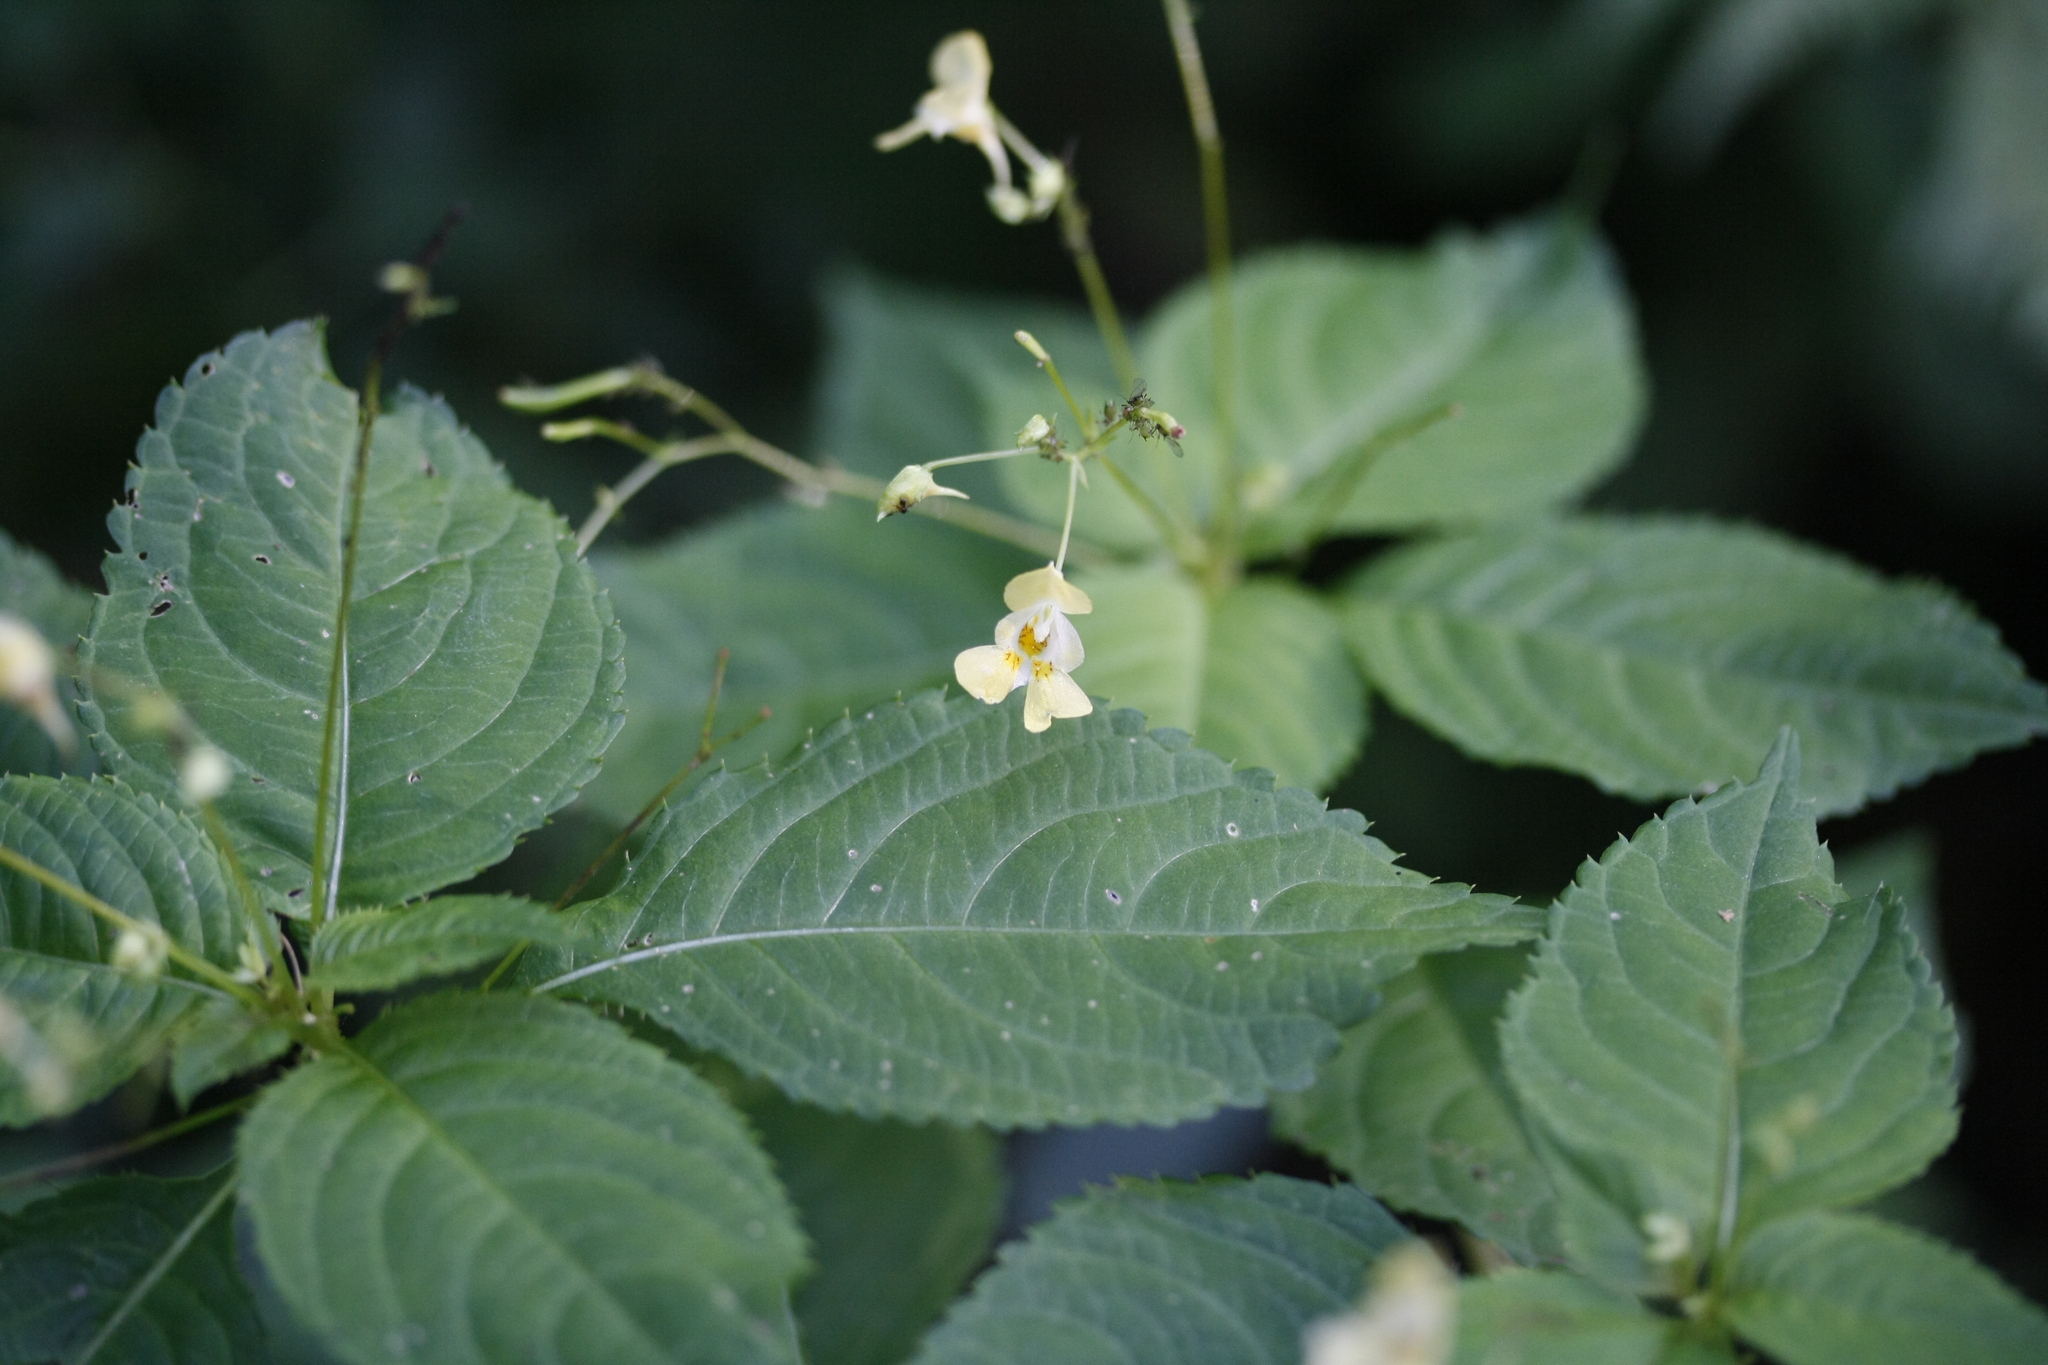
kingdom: Plantae
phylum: Tracheophyta
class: Magnoliopsida
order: Ericales
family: Balsaminaceae
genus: Impatiens
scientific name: Impatiens parviflora
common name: Small balsam
